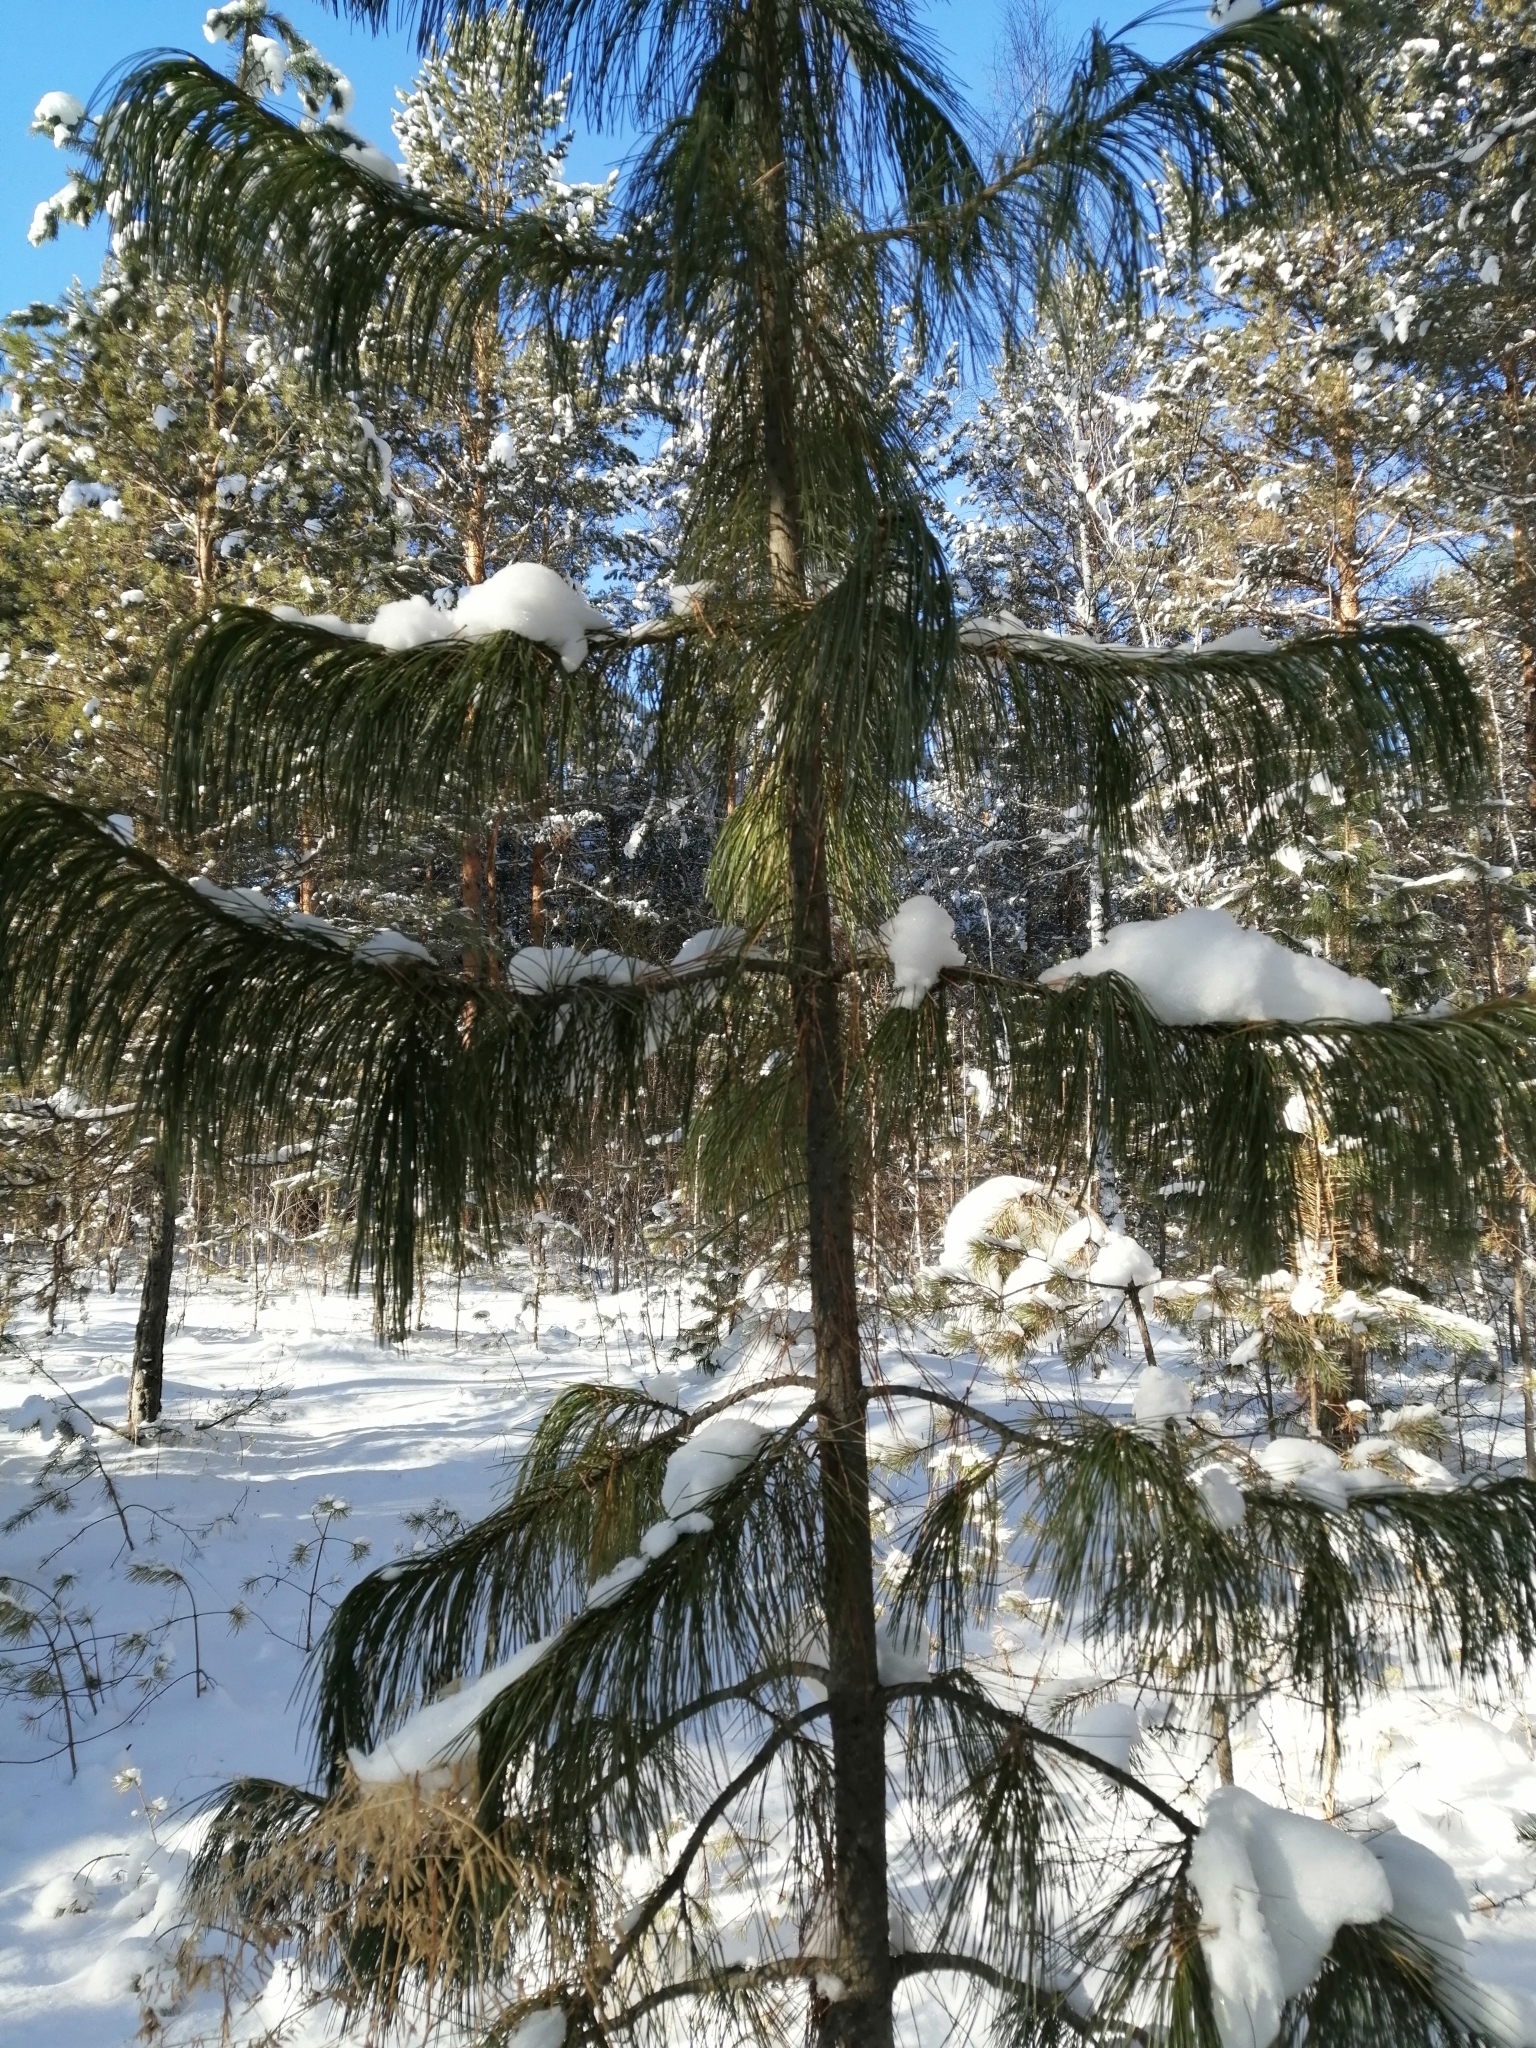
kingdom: Plantae
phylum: Tracheophyta
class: Pinopsida
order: Pinales
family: Pinaceae
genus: Pinus
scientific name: Pinus sibirica
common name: Siberian pine
